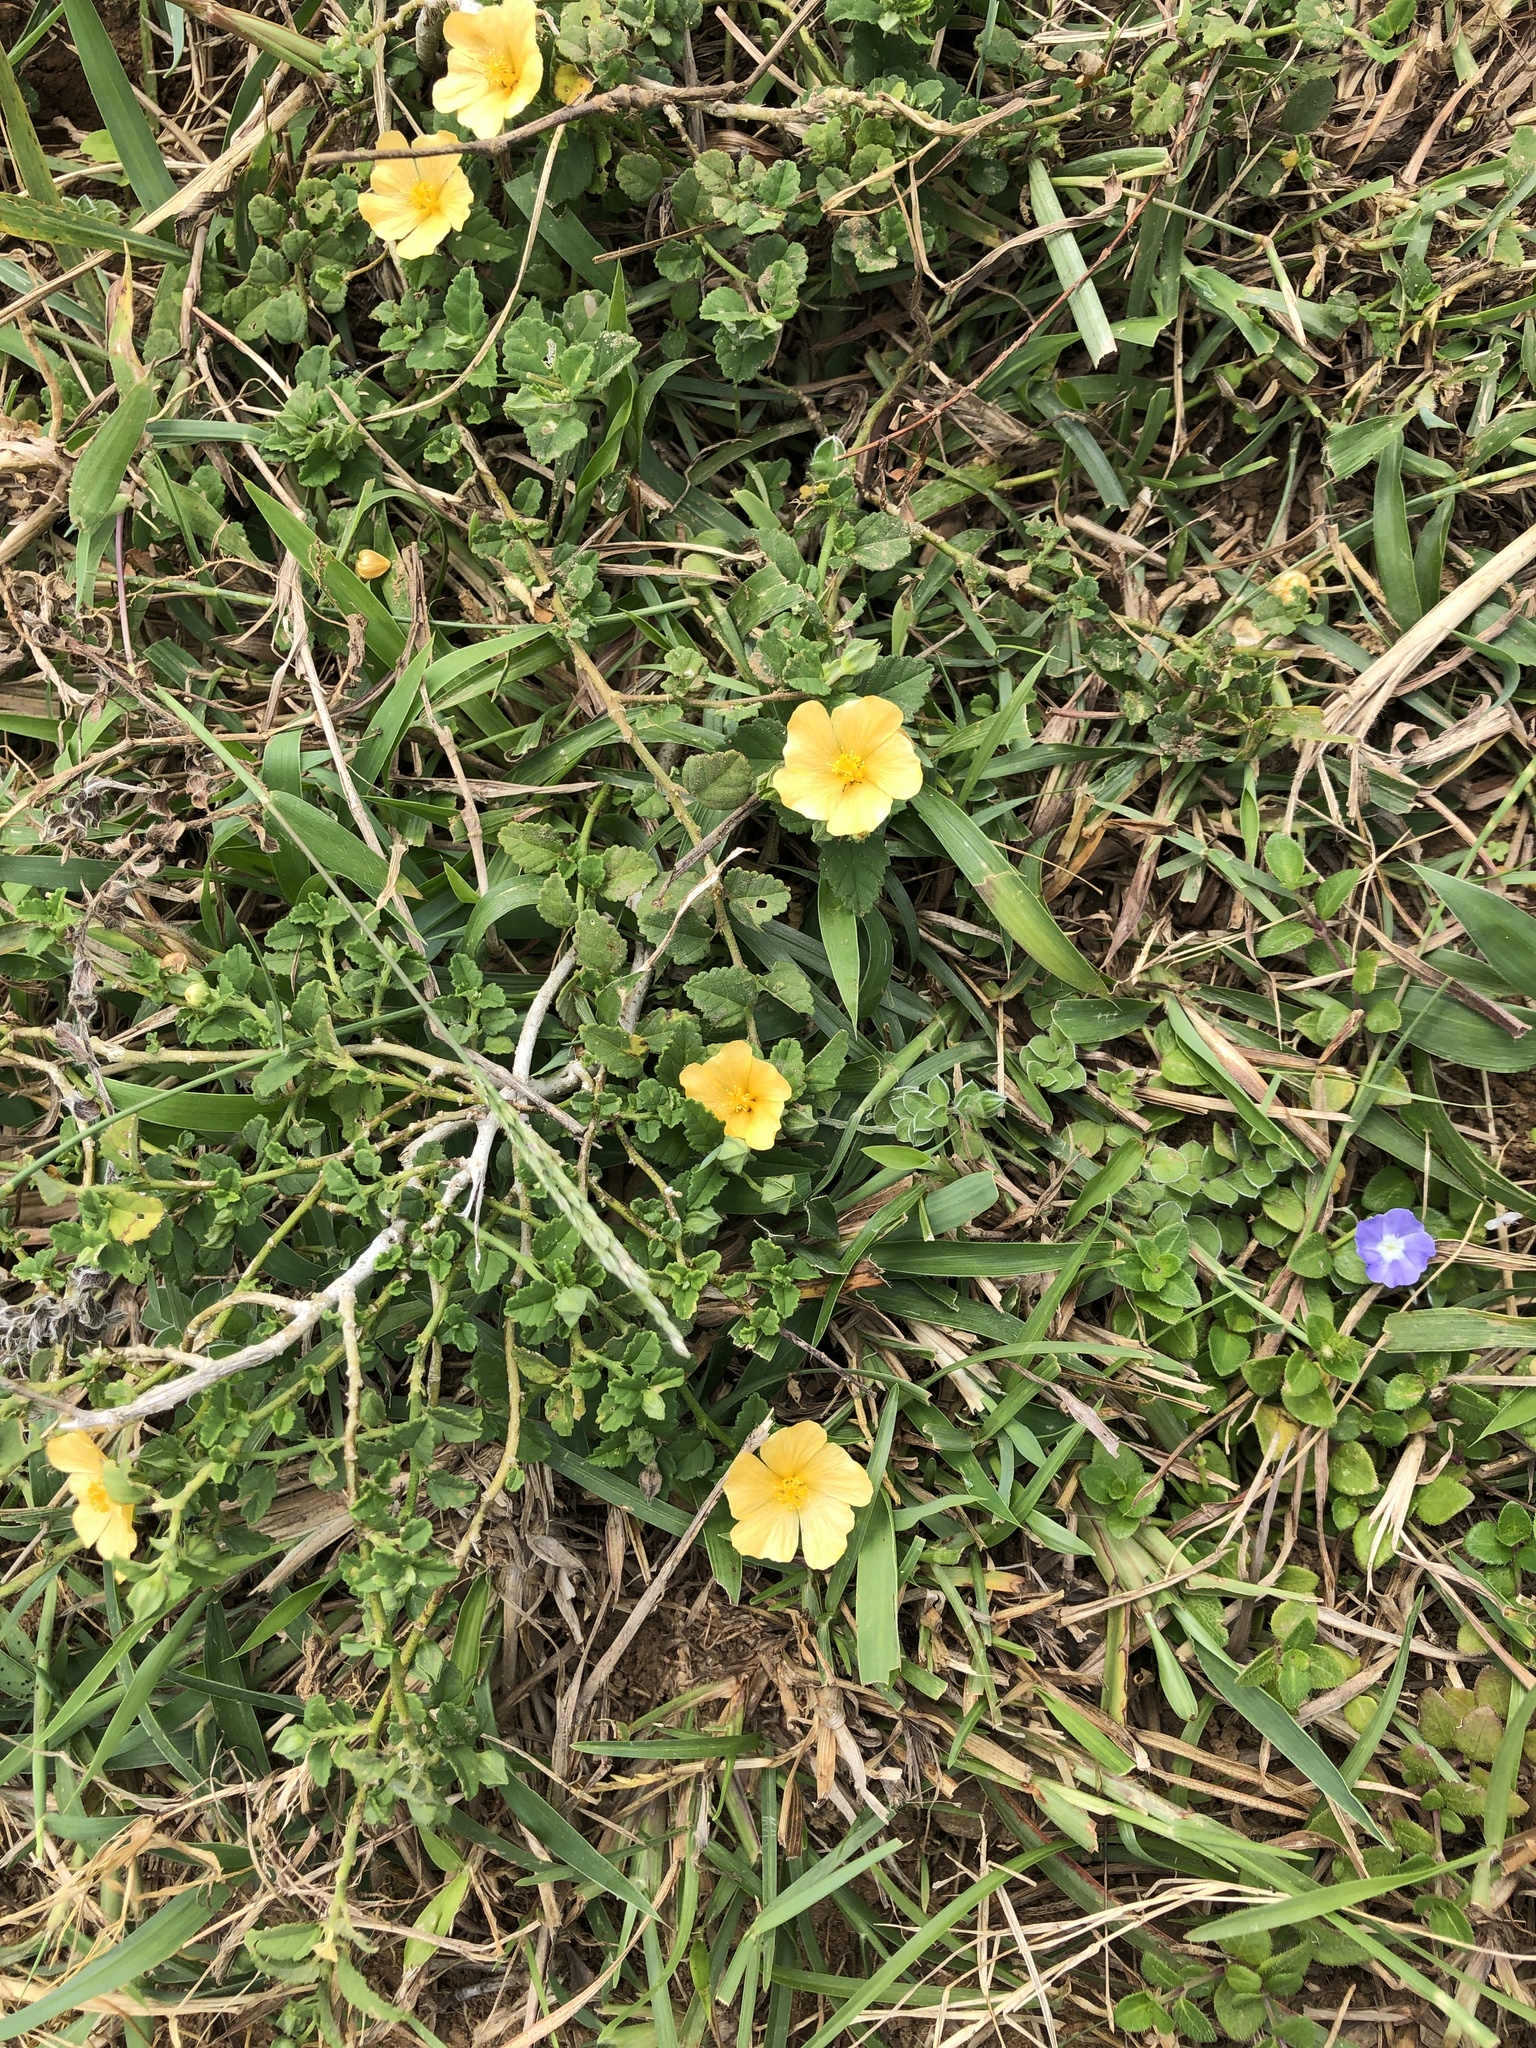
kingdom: Plantae
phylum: Tracheophyta
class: Magnoliopsida
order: Malvales
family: Malvaceae
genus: Sida
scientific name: Sida rhombifolia
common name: Queensland-hemp
